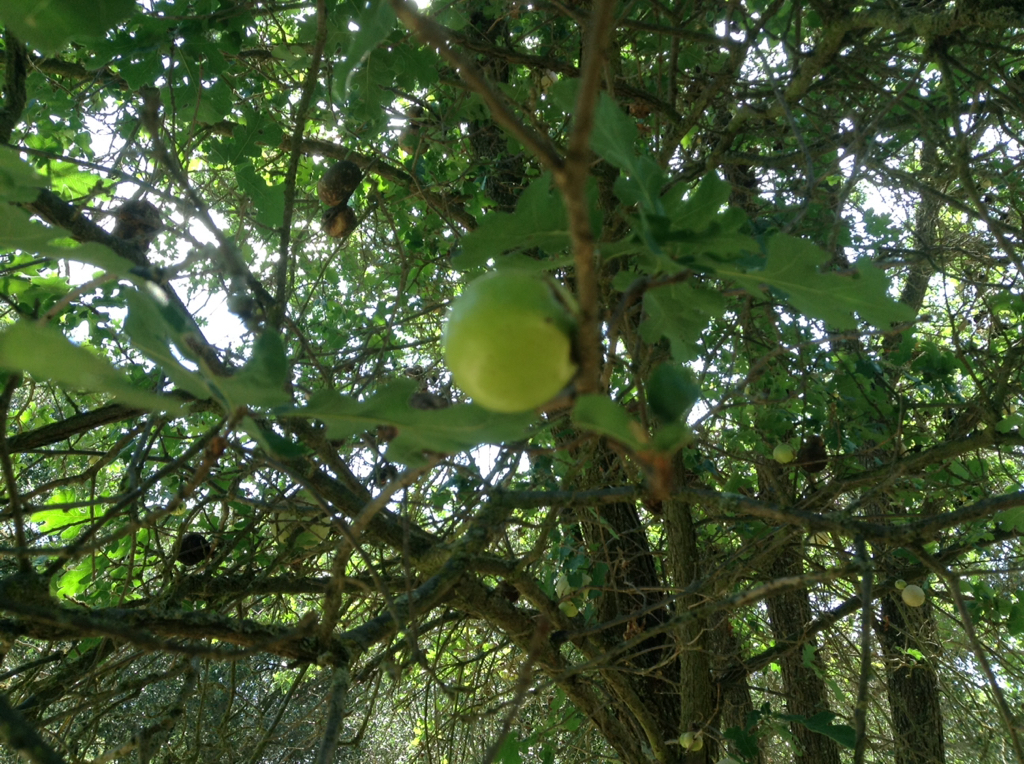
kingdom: Animalia
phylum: Arthropoda
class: Insecta
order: Hymenoptera
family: Cynipidae
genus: Andricus
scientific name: Andricus quercuscalifornicus
